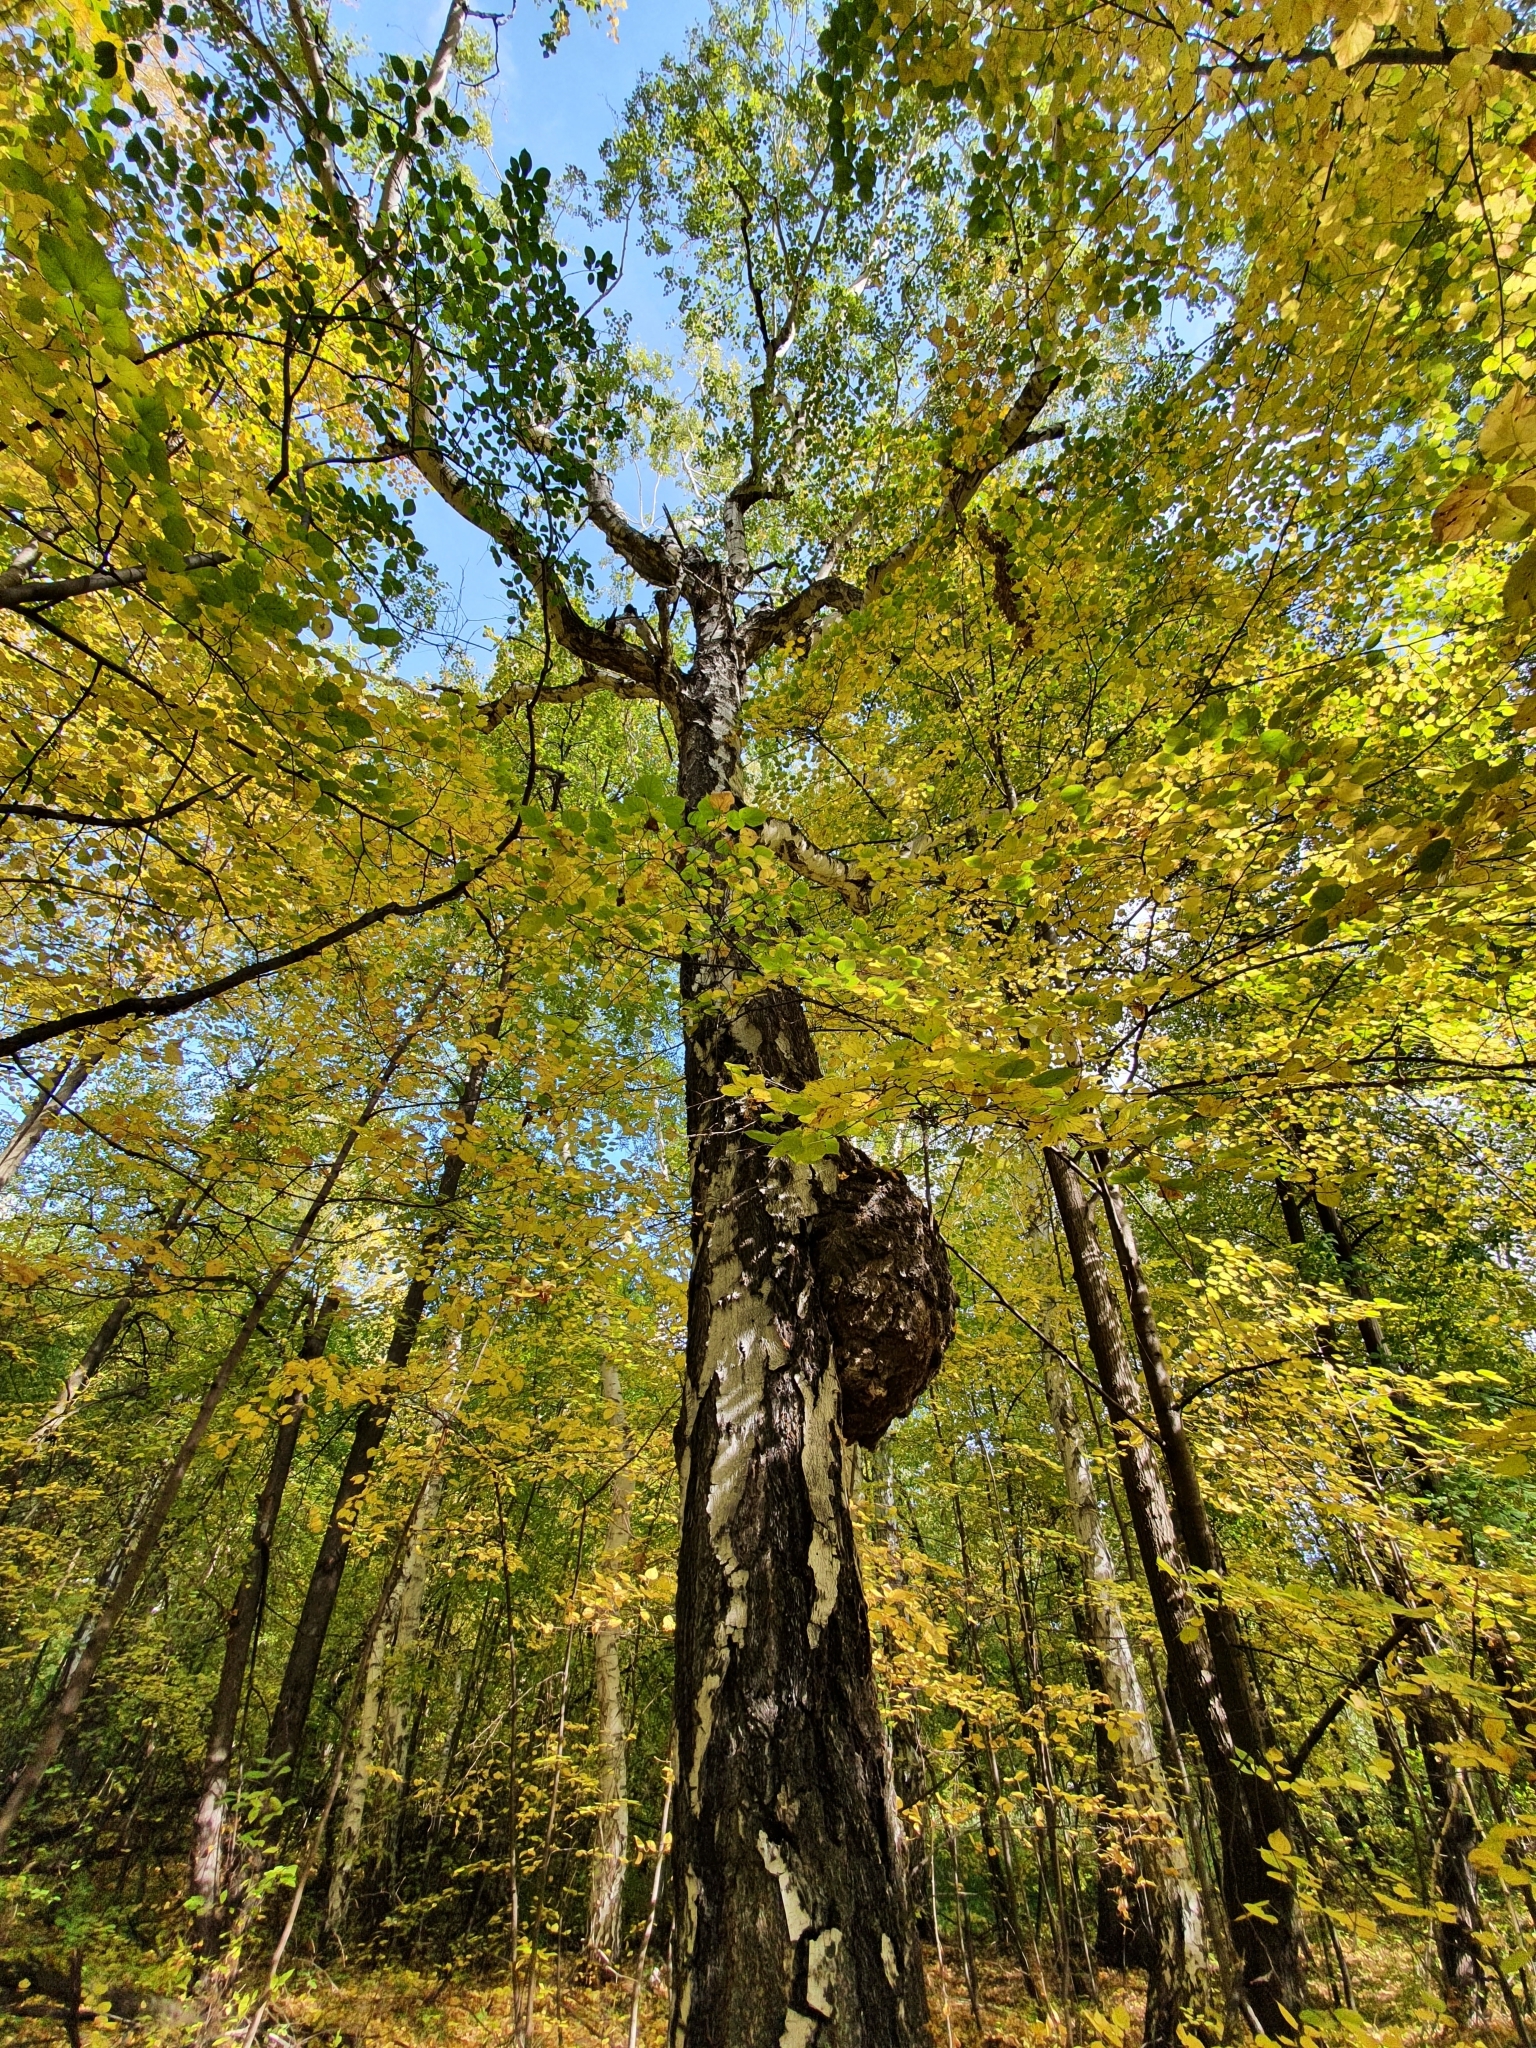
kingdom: Plantae
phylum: Tracheophyta
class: Magnoliopsida
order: Fagales
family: Betulaceae
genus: Betula
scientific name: Betula pendula
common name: Silver birch
